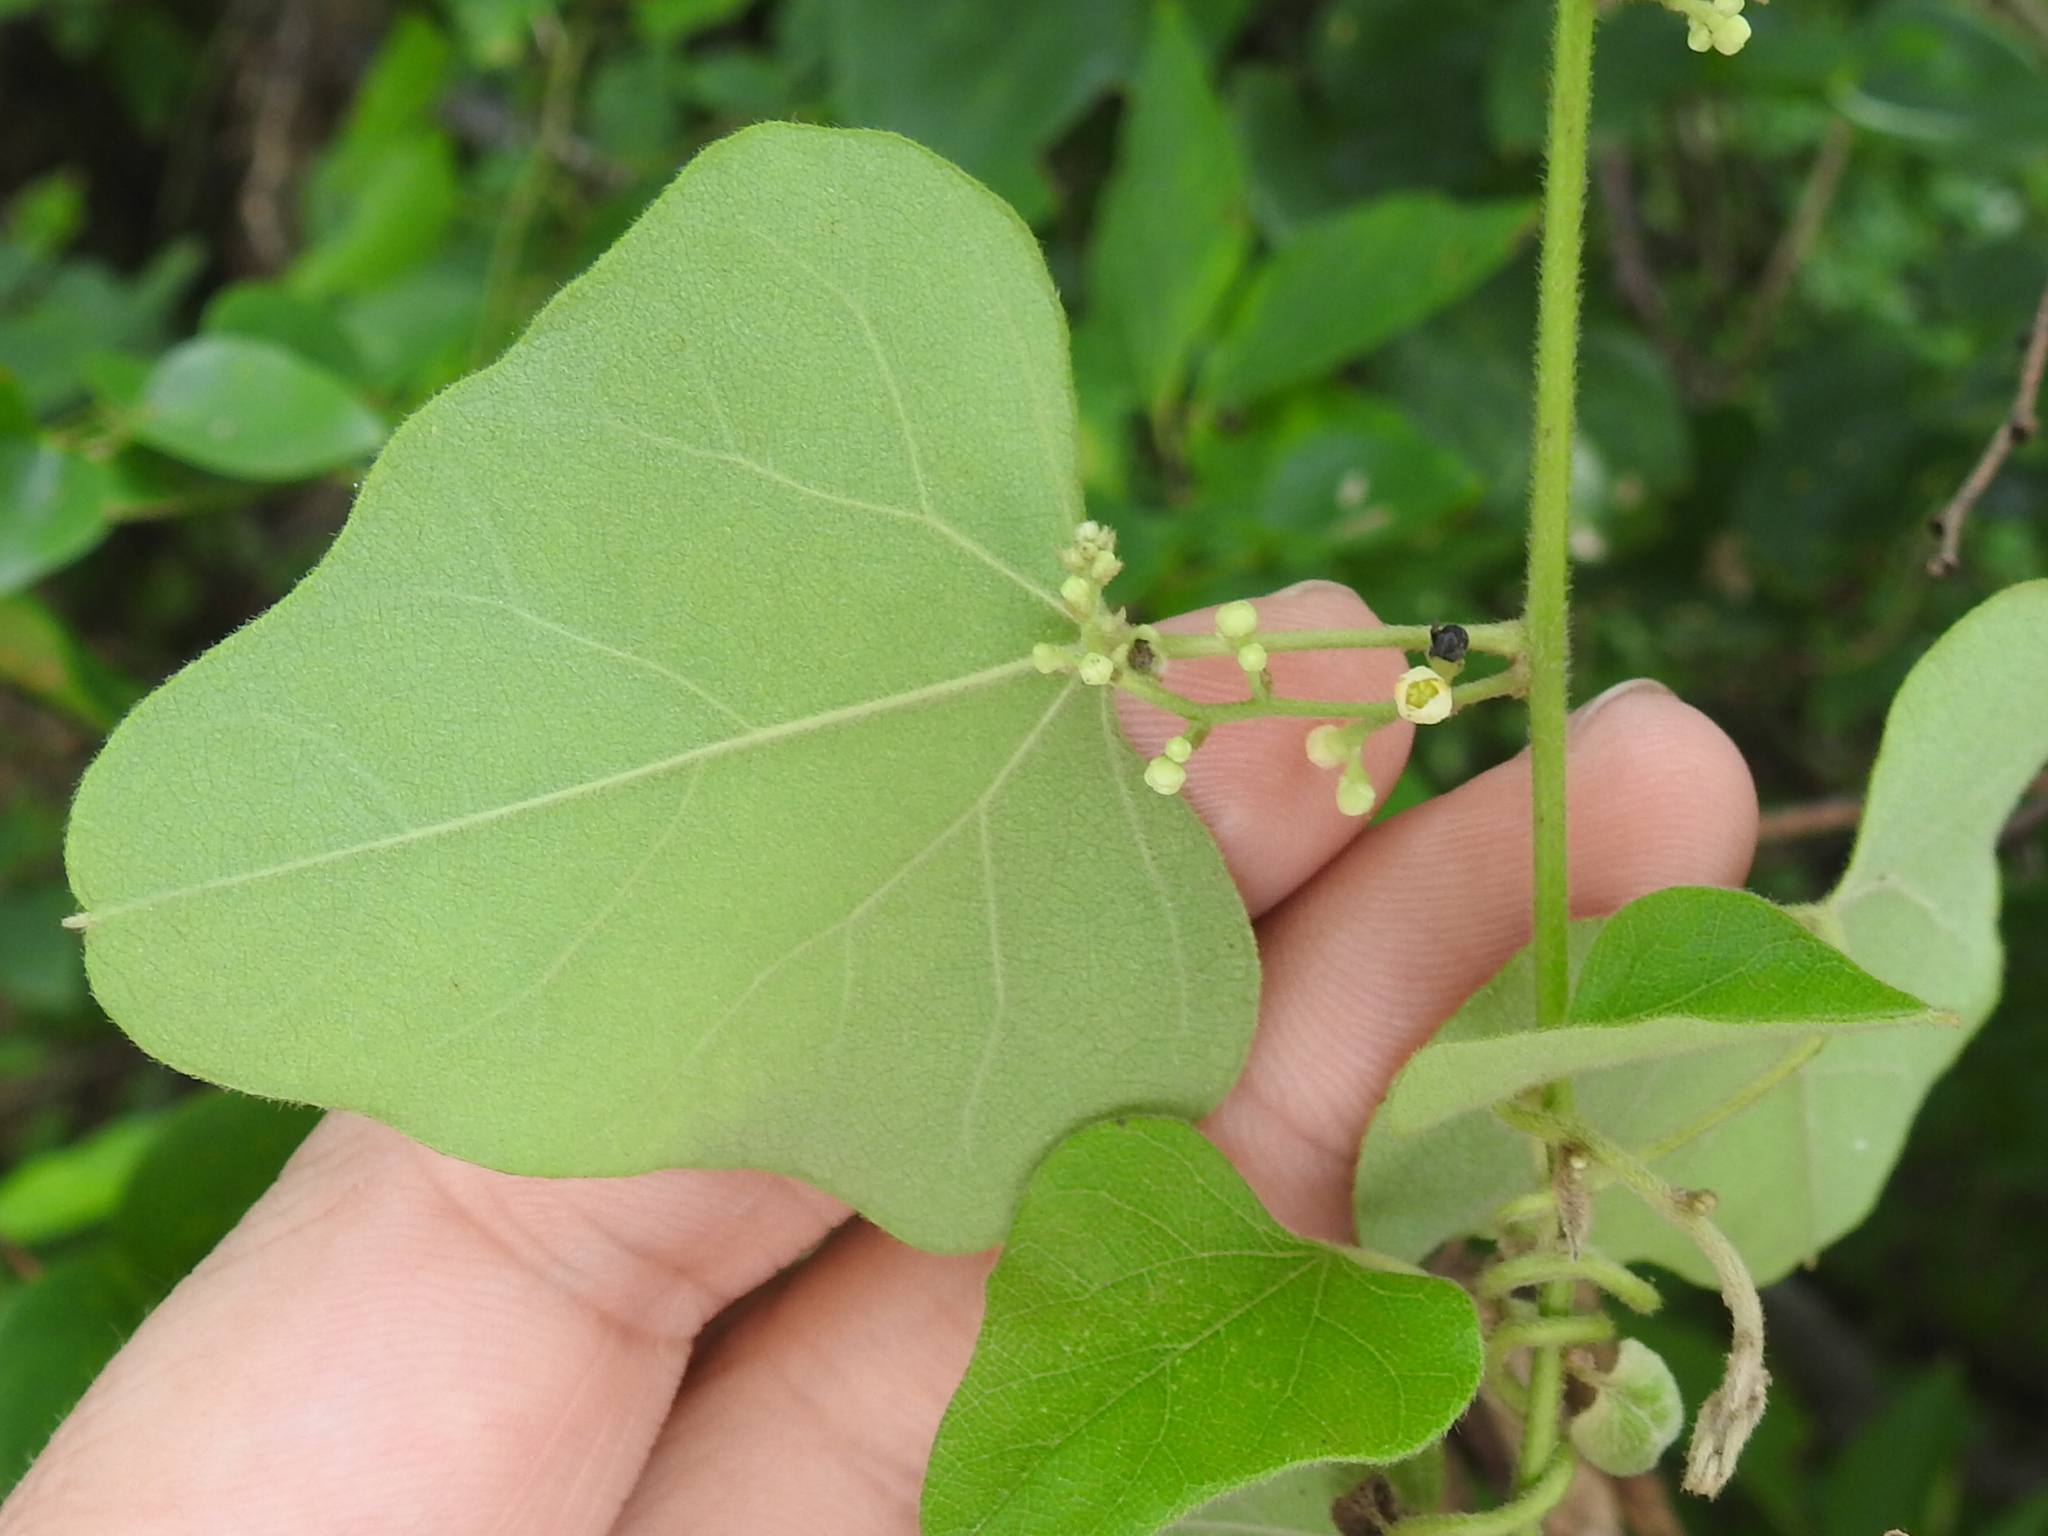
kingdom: Plantae
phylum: Tracheophyta
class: Magnoliopsida
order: Ranunculales
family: Menispermaceae
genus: Cocculus
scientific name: Cocculus carolinus
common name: Carolina moonseed
